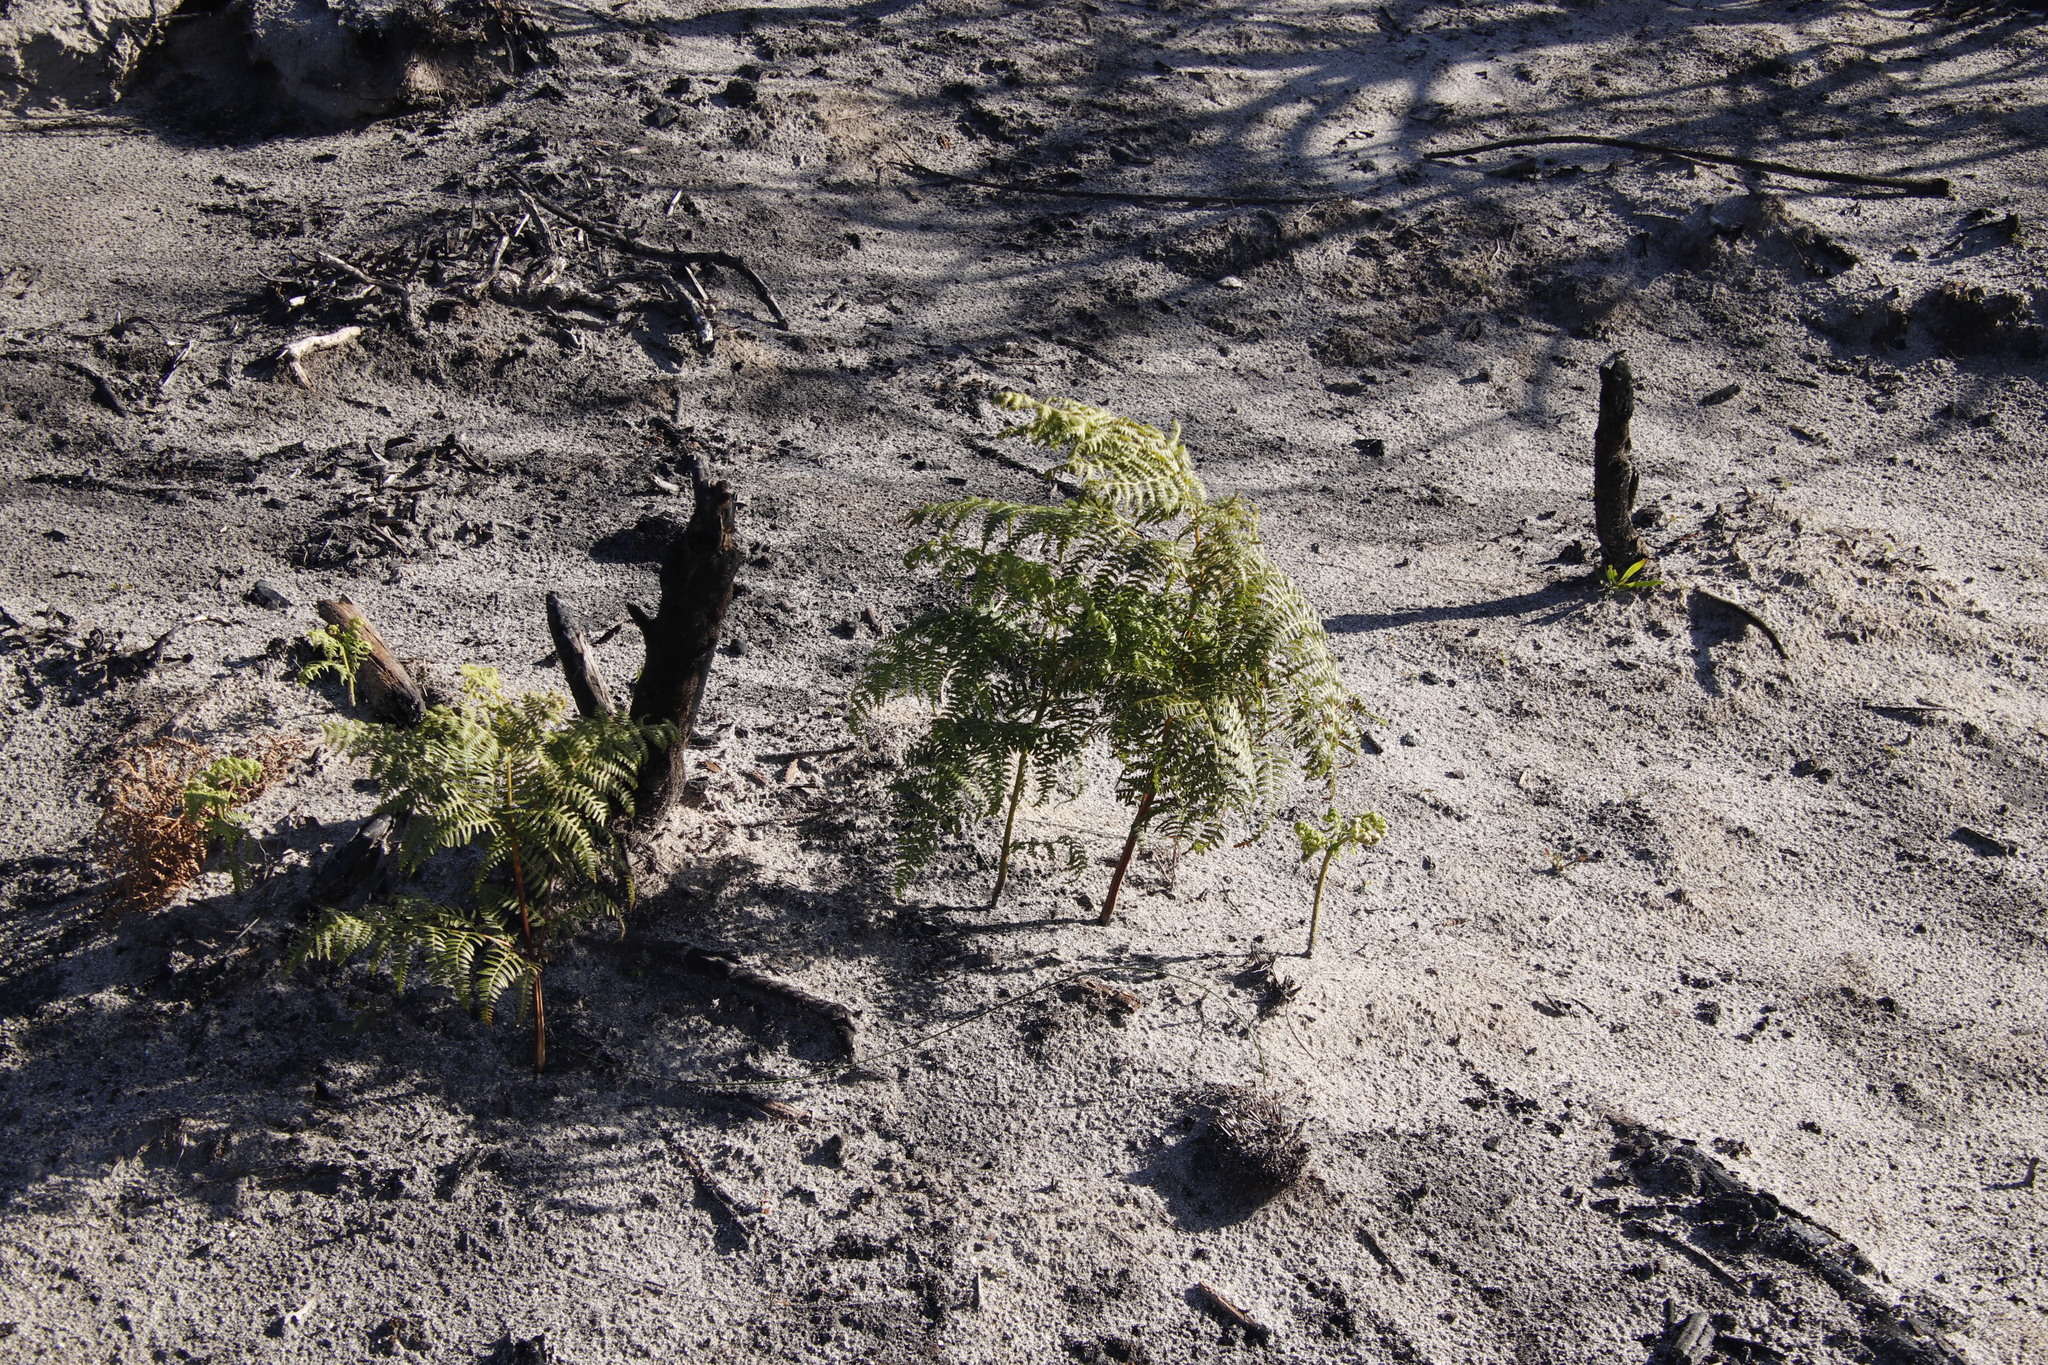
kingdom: Plantae
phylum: Tracheophyta
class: Polypodiopsida
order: Polypodiales
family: Dennstaedtiaceae
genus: Pteridium
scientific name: Pteridium aquilinum
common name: Bracken
